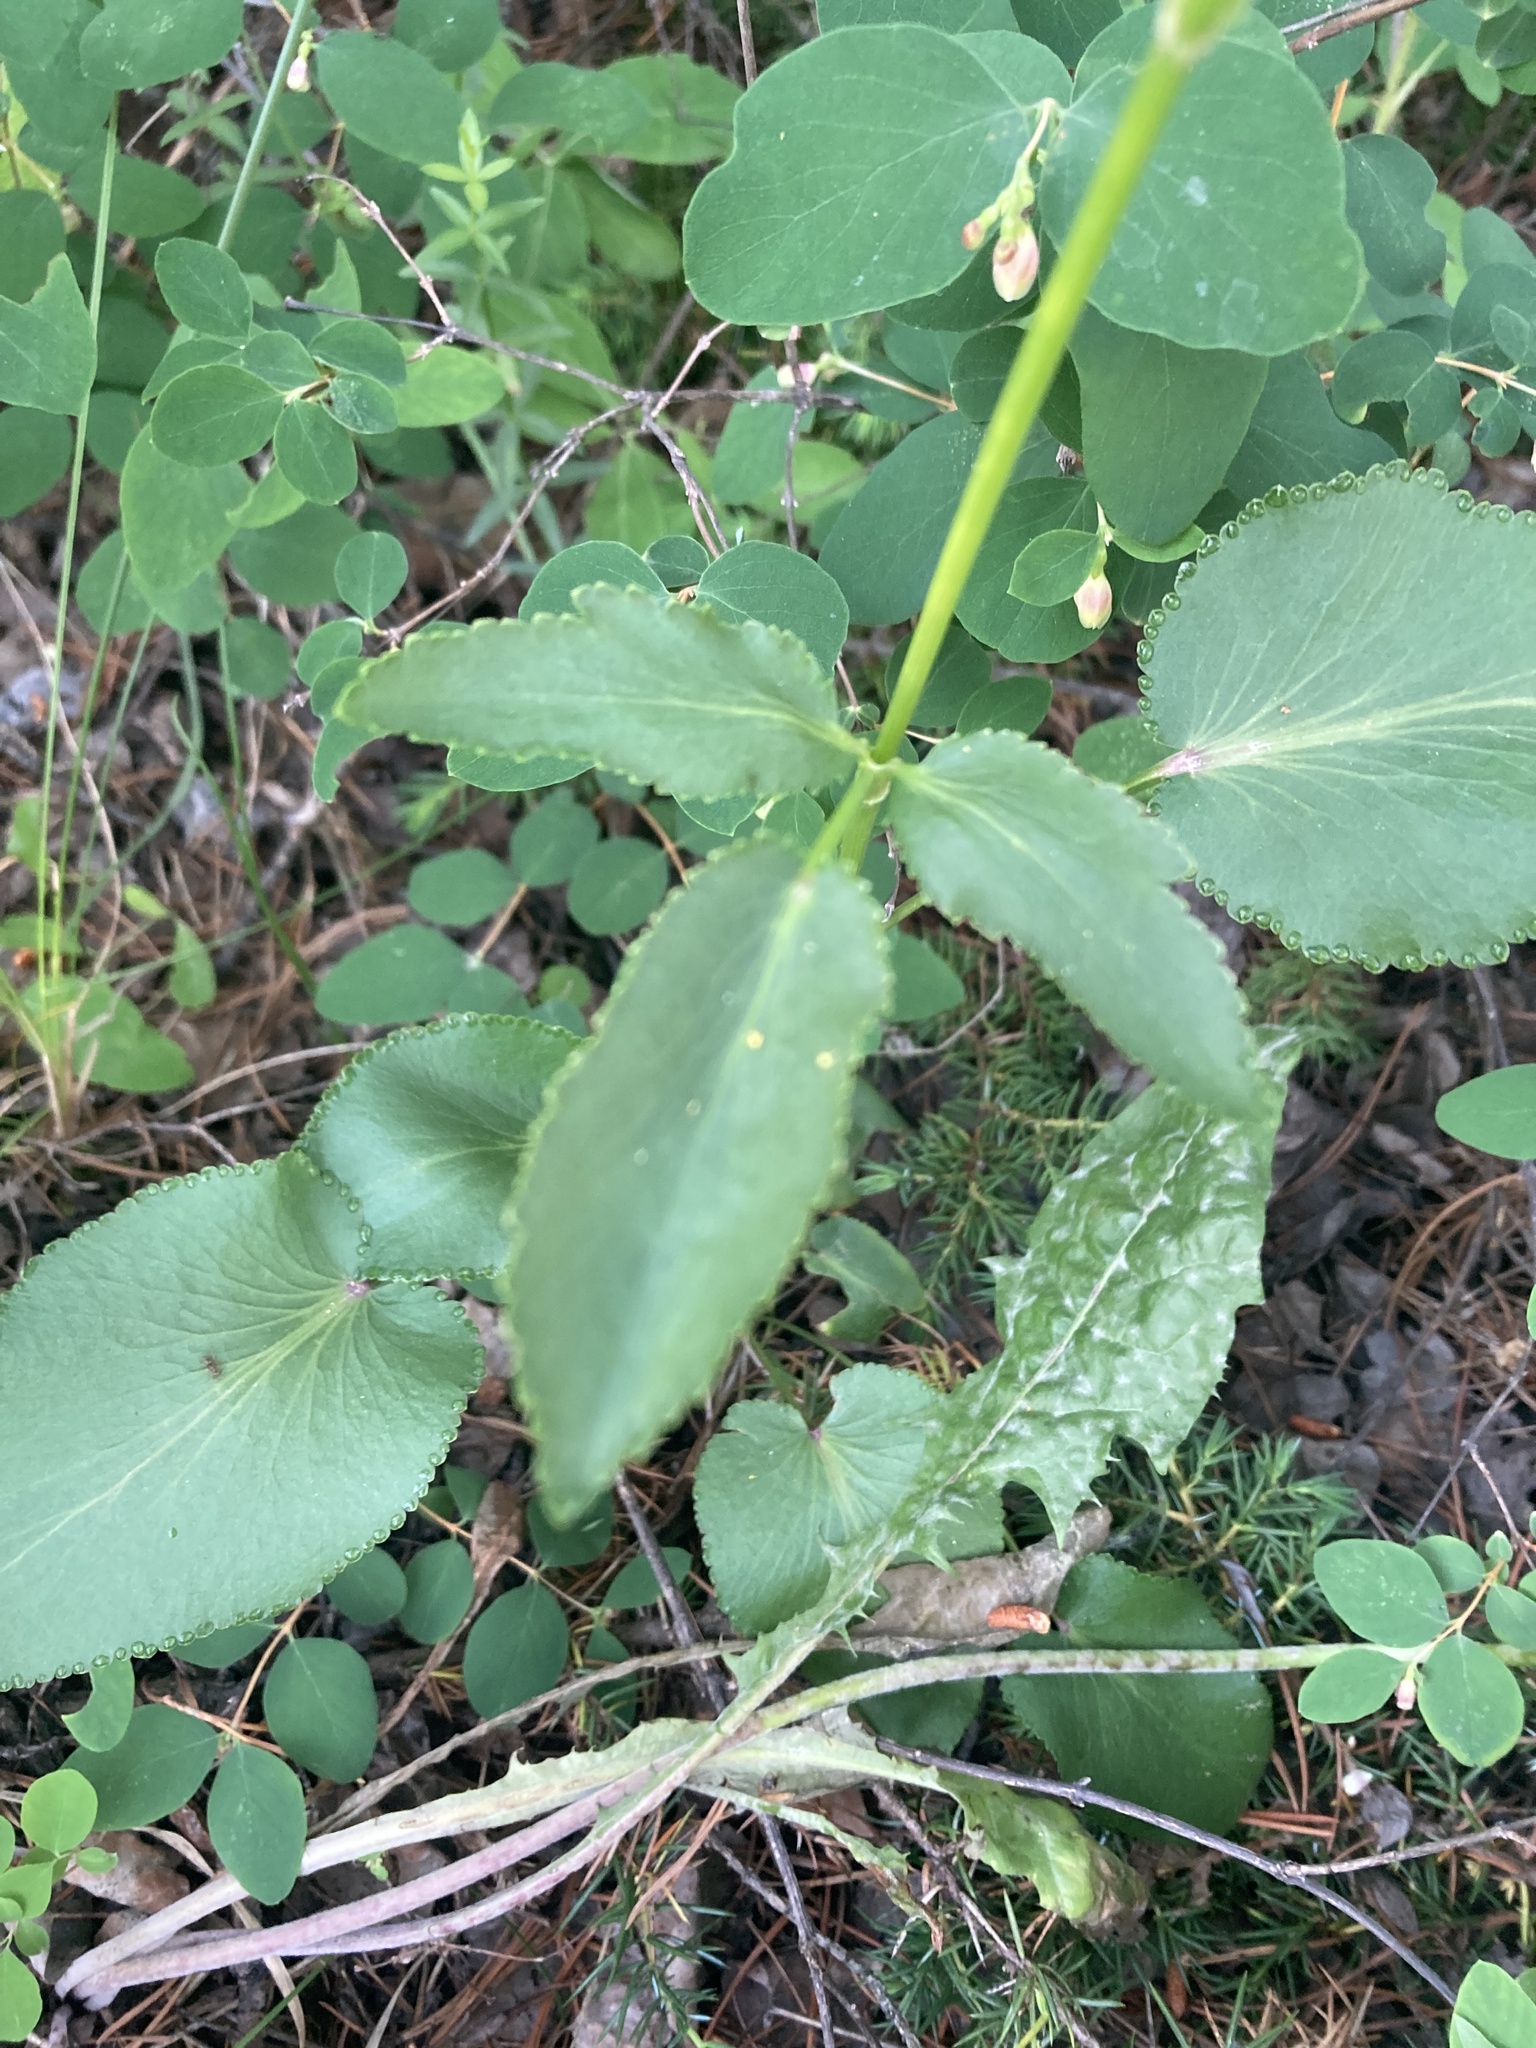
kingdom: Plantae
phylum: Tracheophyta
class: Magnoliopsida
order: Apiales
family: Apiaceae
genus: Zizia
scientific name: Zizia aptera
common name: Heart-leaved alexanders
